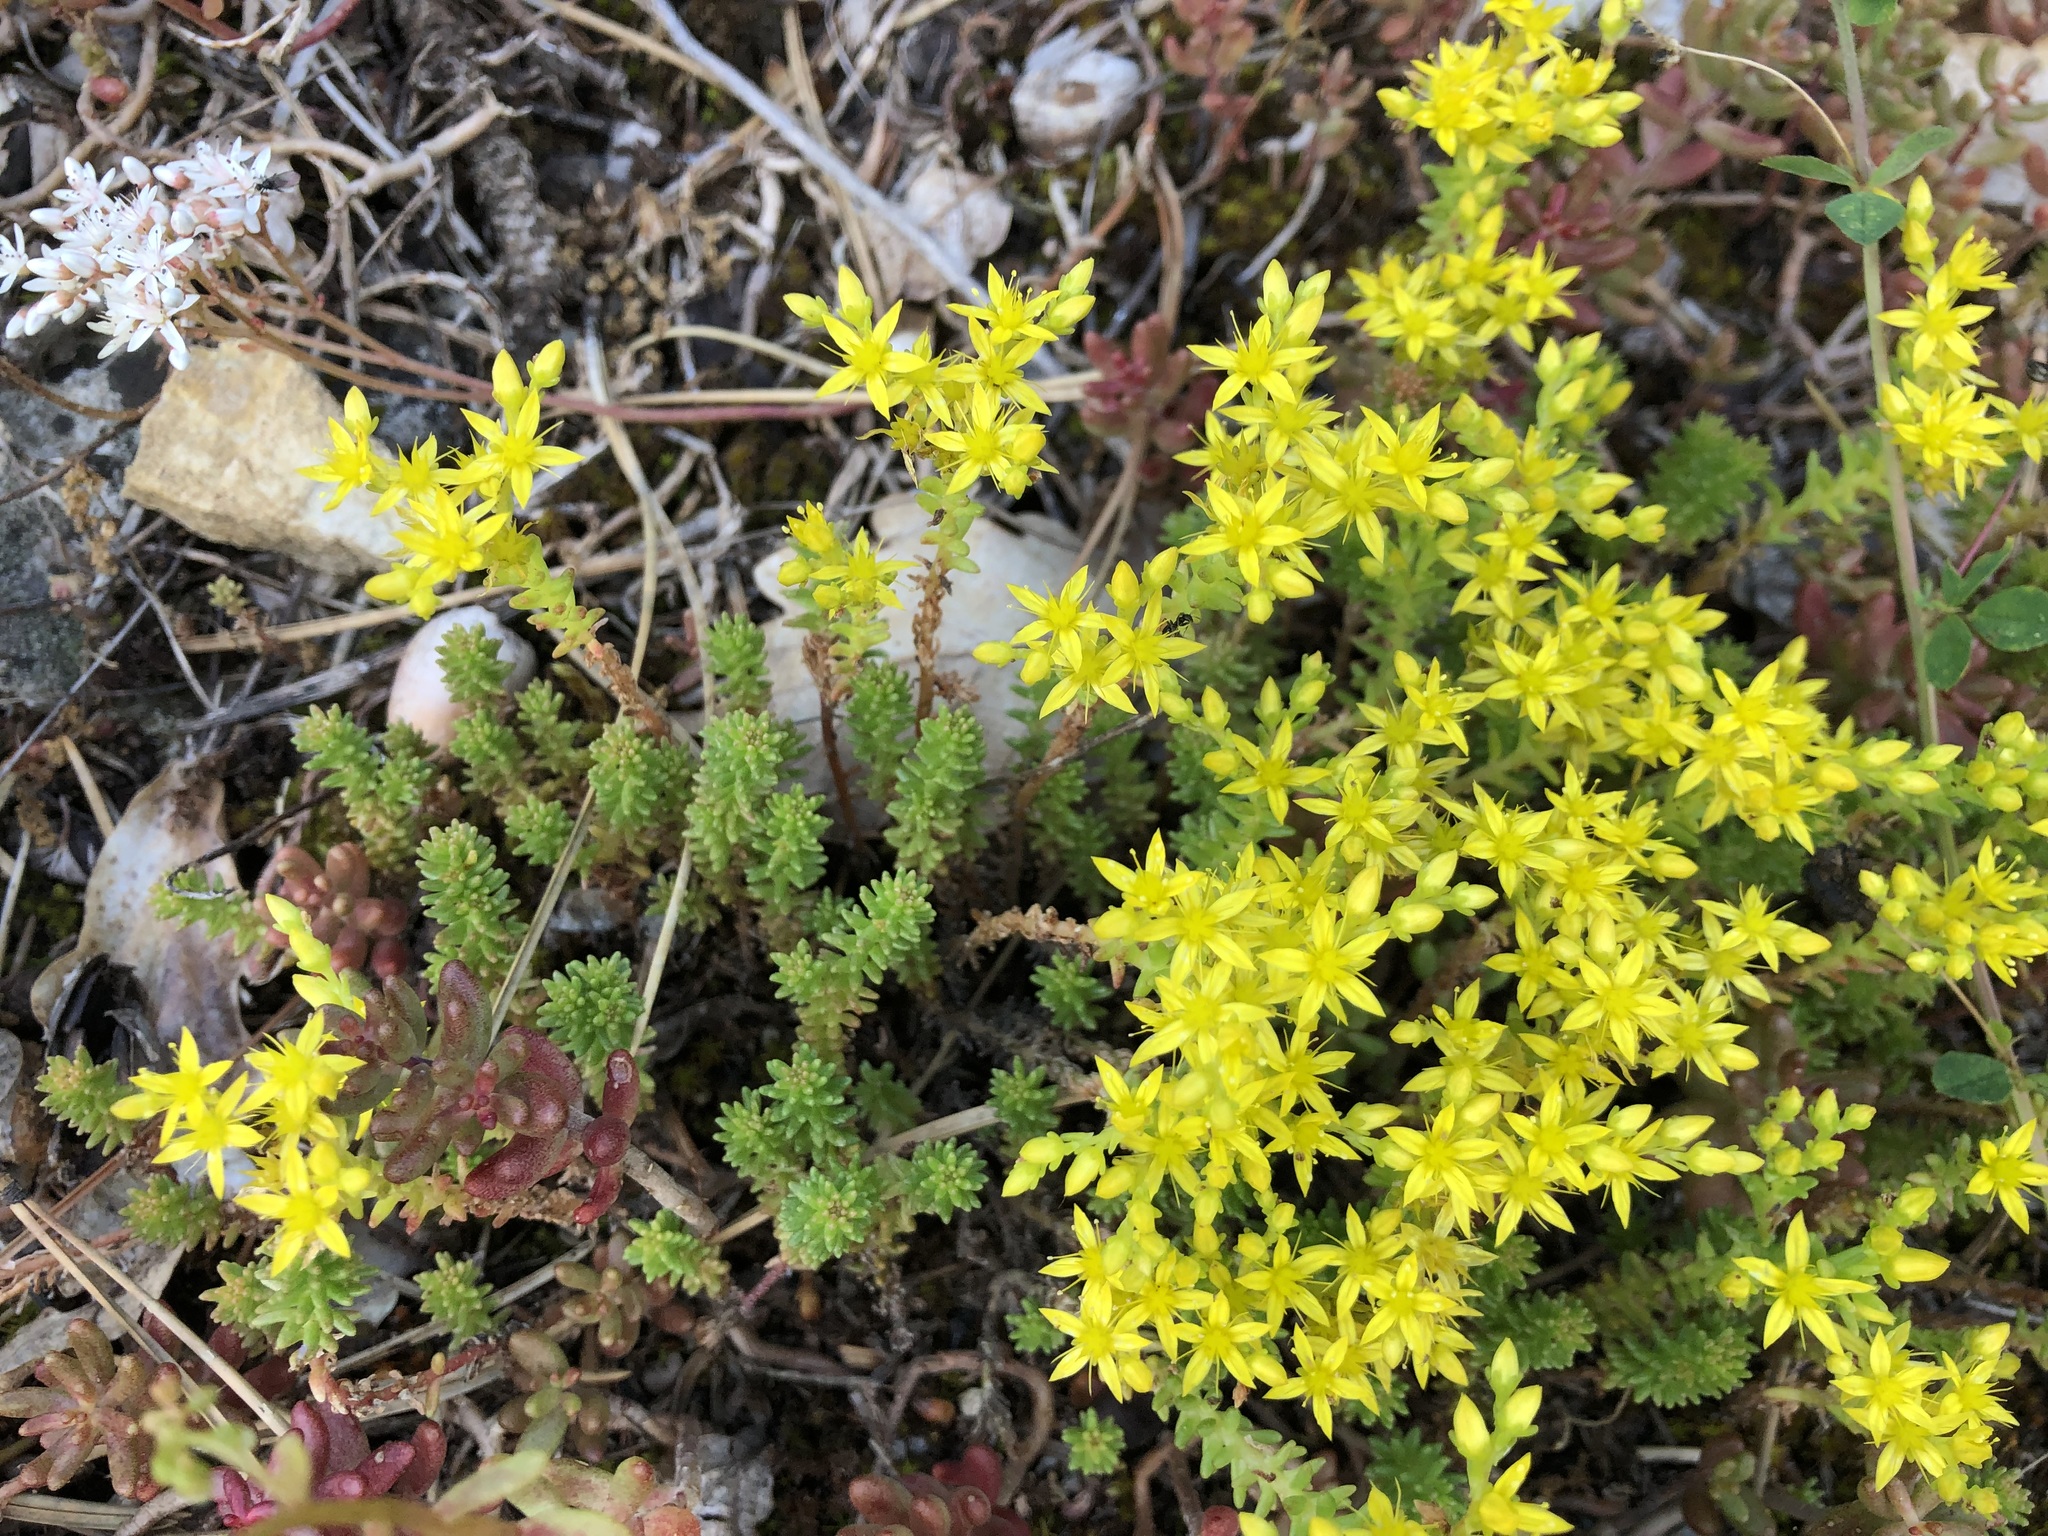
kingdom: Plantae
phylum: Tracheophyta
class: Magnoliopsida
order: Saxifragales
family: Crassulaceae
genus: Sedum
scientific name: Sedum sexangulare
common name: Tasteless stonecrop
